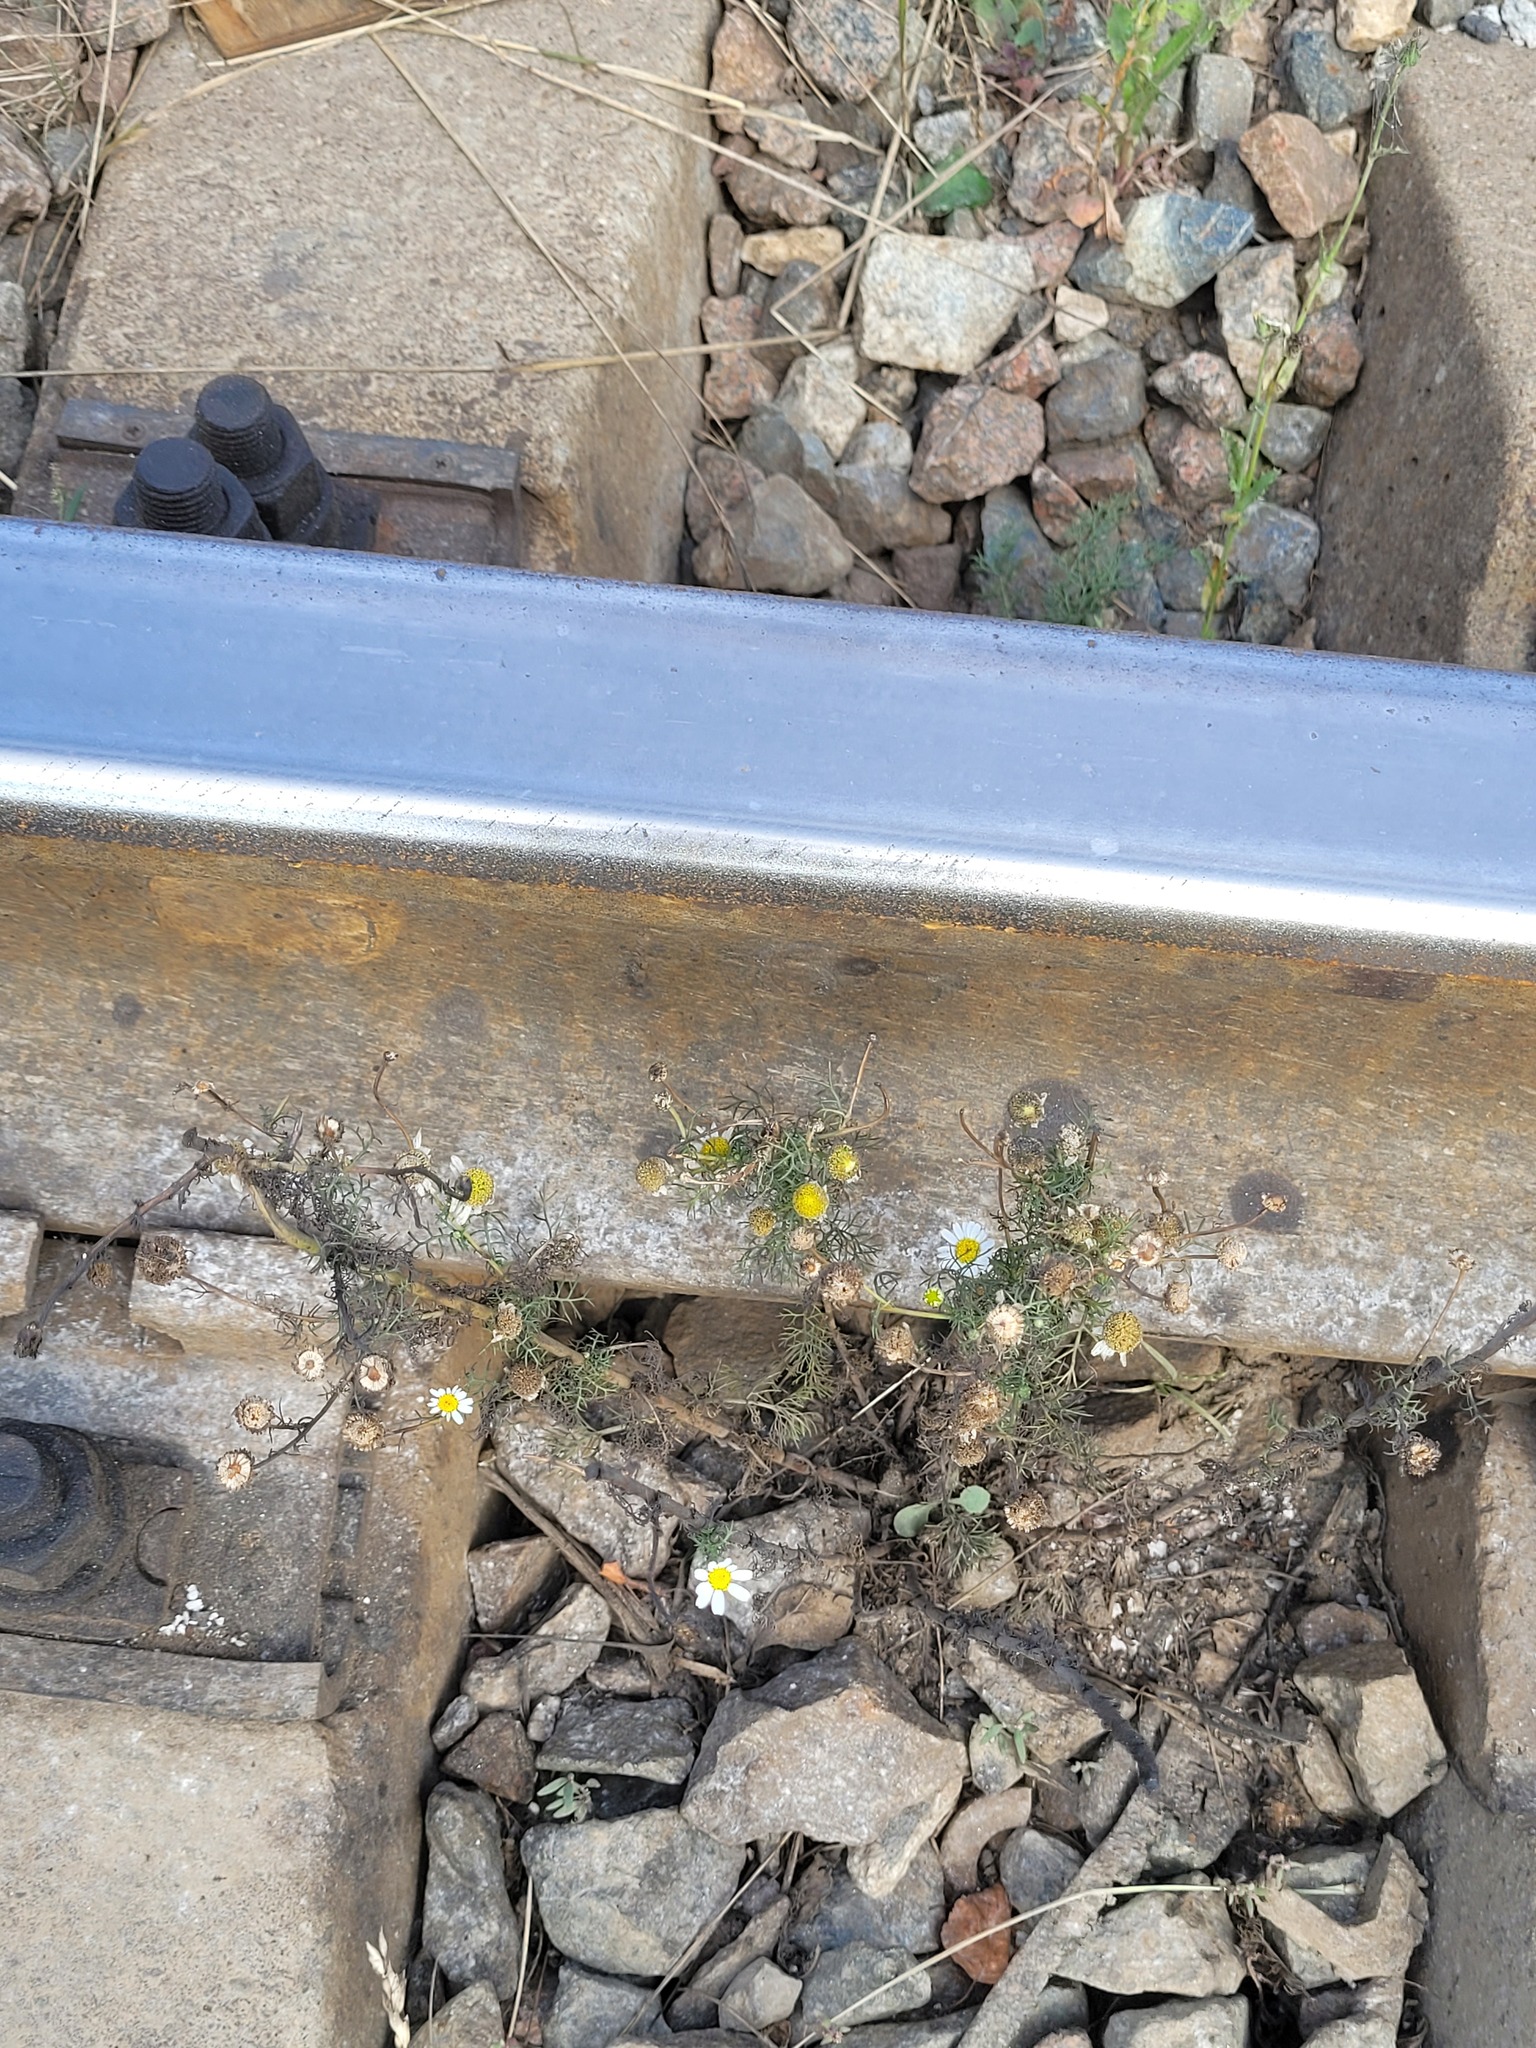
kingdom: Plantae
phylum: Tracheophyta
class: Magnoliopsida
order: Asterales
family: Asteraceae
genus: Tripleurospermum
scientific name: Tripleurospermum inodorum
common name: Scentless mayweed
